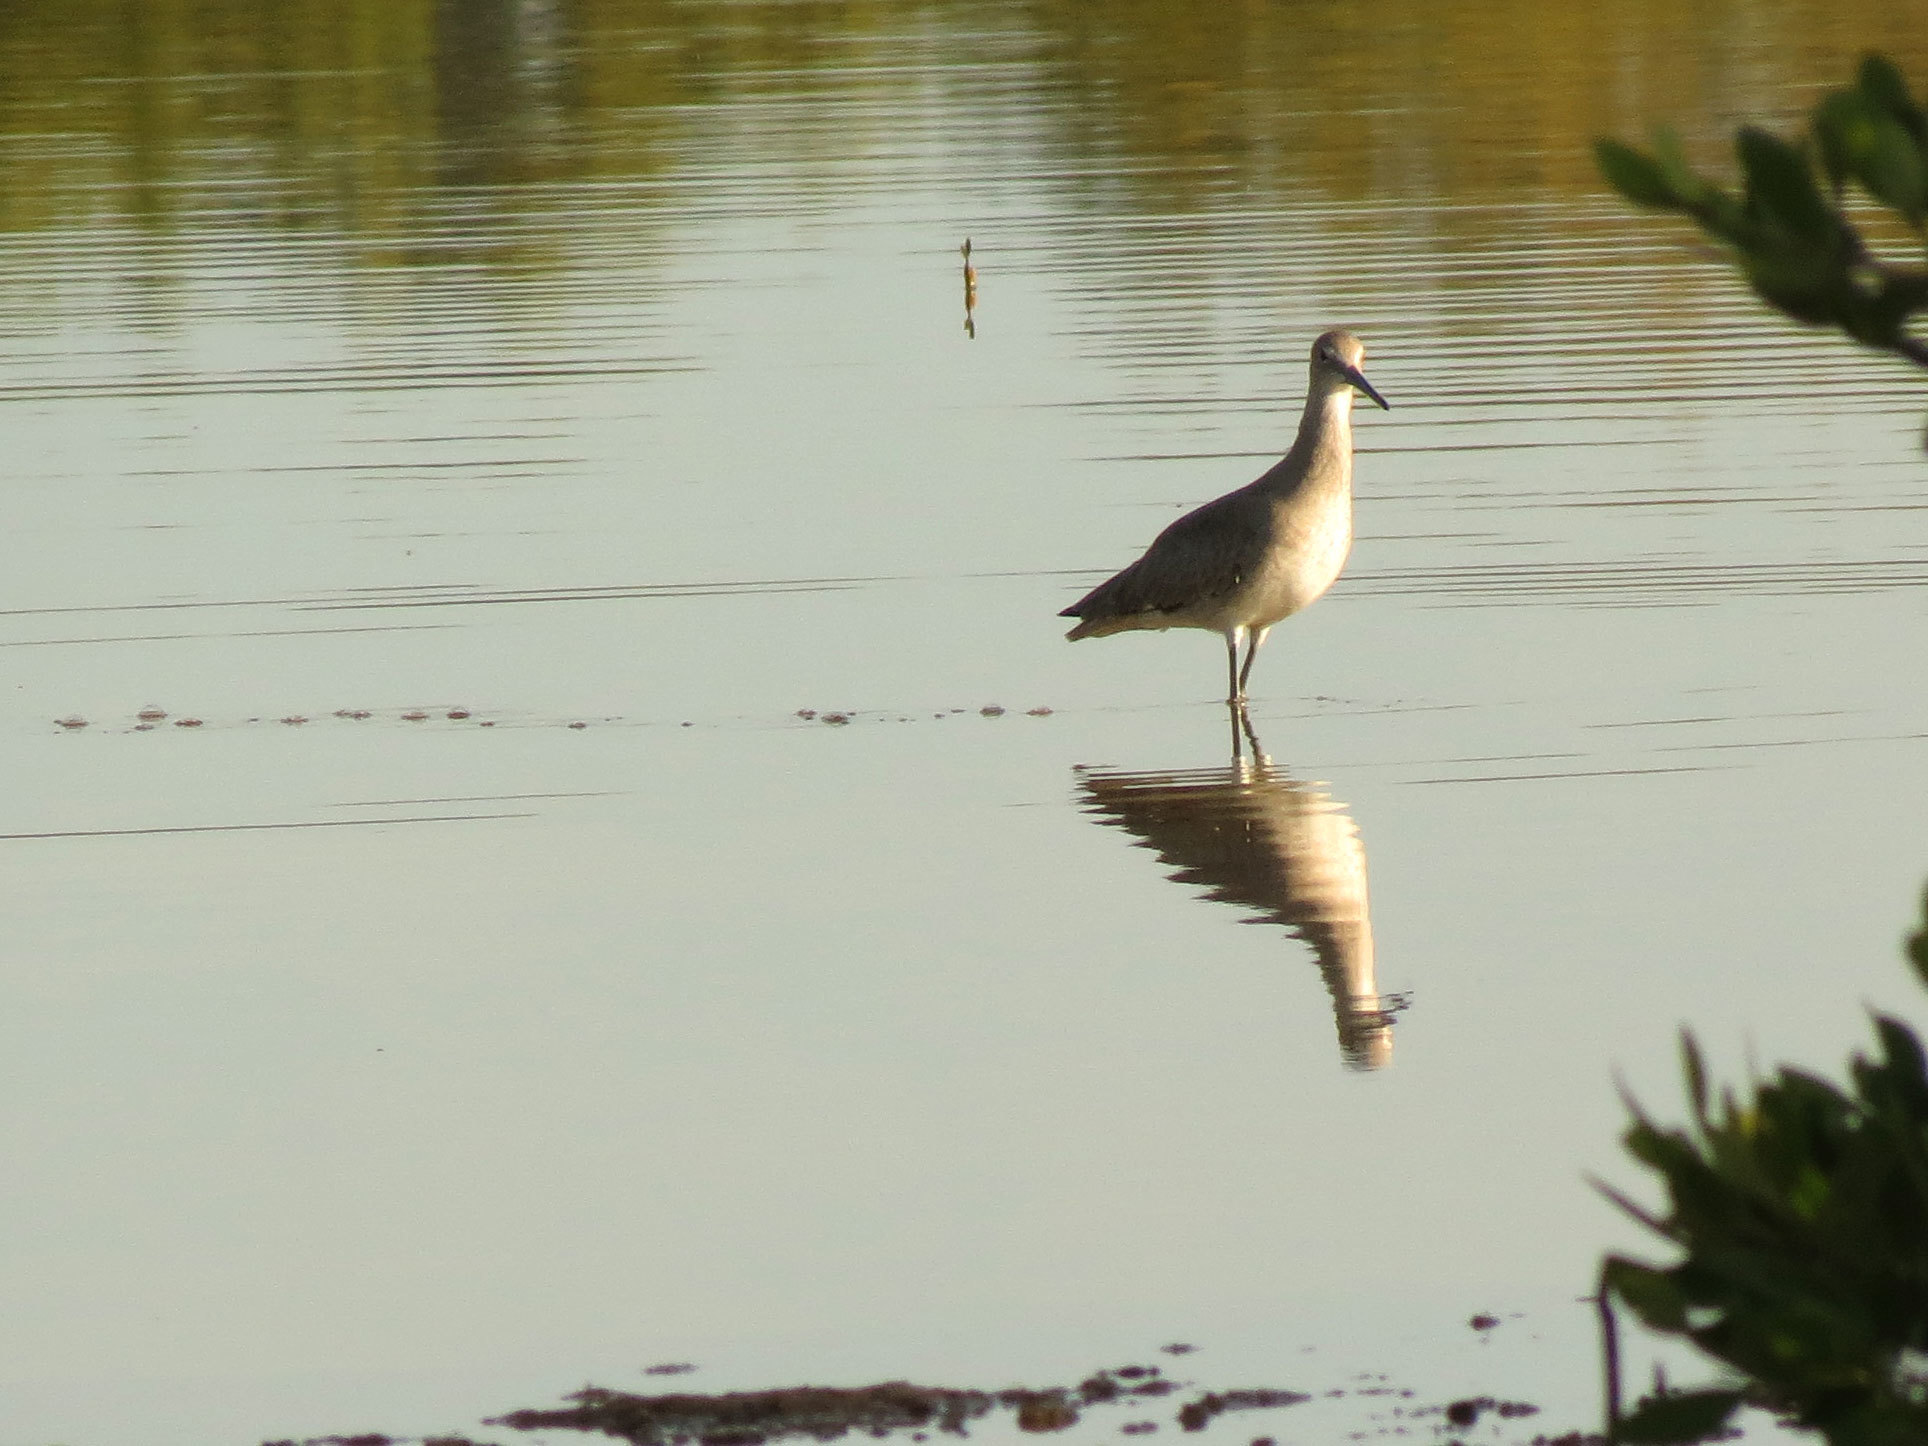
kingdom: Animalia
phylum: Chordata
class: Aves
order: Charadriiformes
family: Scolopacidae
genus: Tringa
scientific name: Tringa semipalmata
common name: Willet
